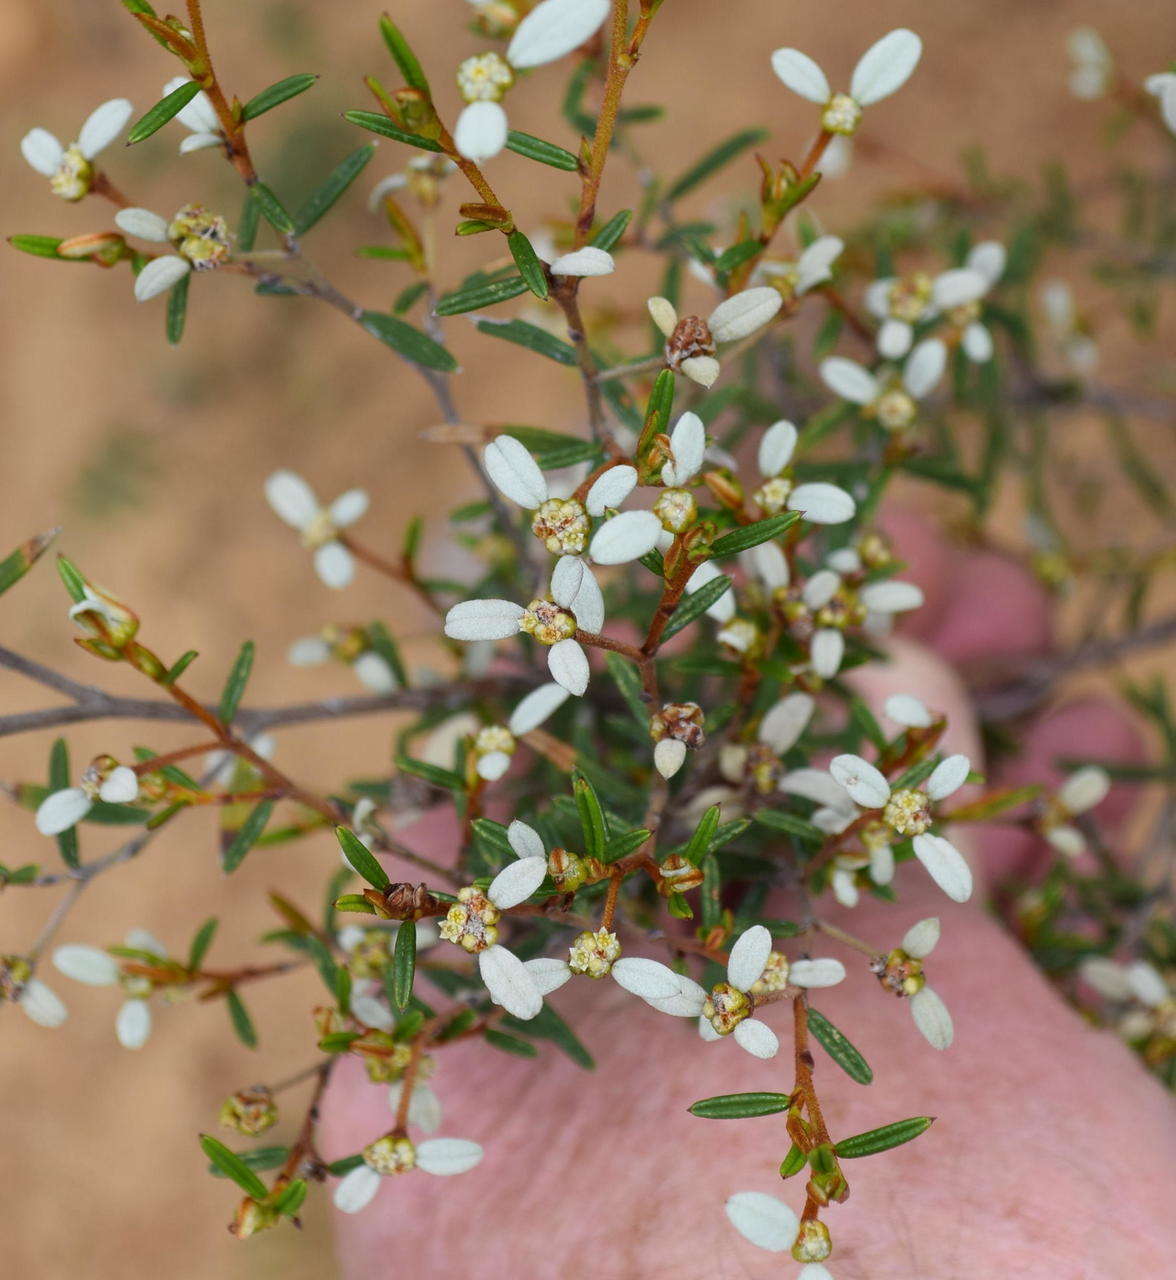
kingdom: Plantae
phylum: Tracheophyta
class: Magnoliopsida
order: Rosales
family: Rhamnaceae
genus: Spyridium
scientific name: Spyridium vexilliferum
